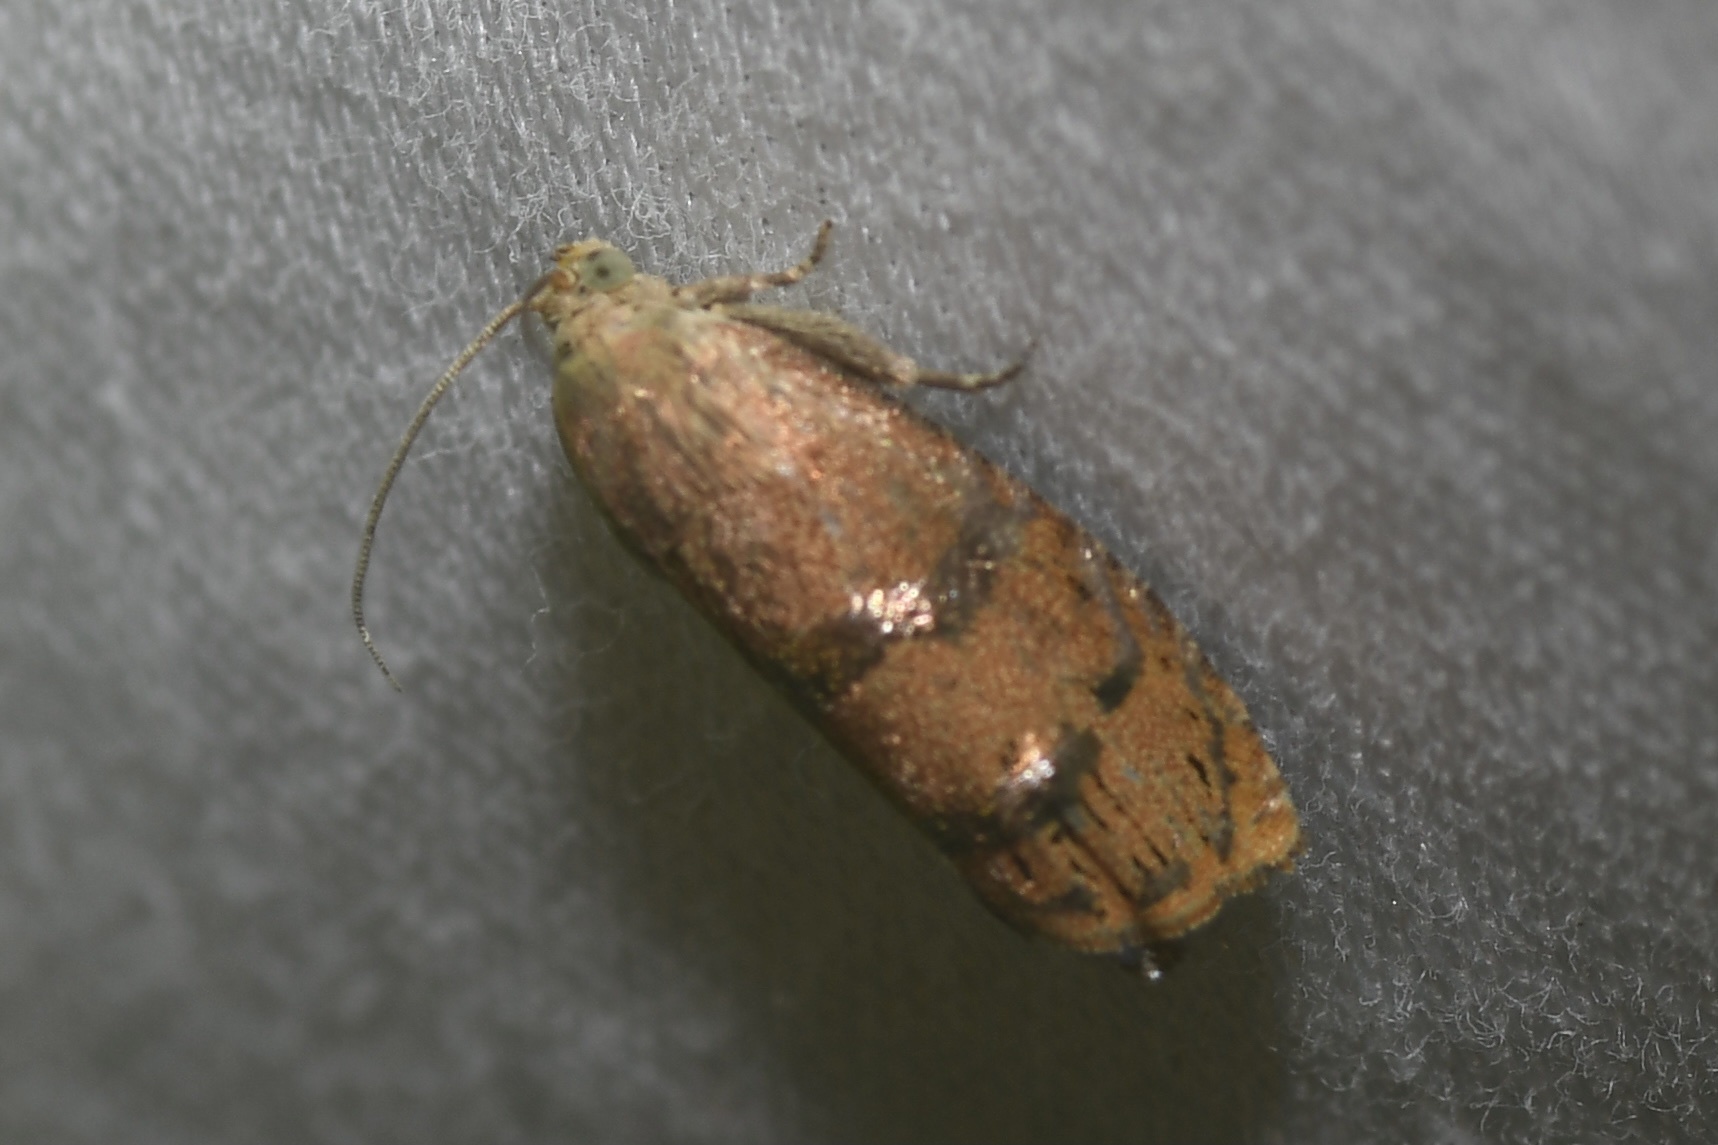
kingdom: Animalia
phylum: Arthropoda
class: Insecta
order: Lepidoptera
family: Tortricidae
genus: Cydia
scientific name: Cydia latiferreana
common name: Filbertworm moth
